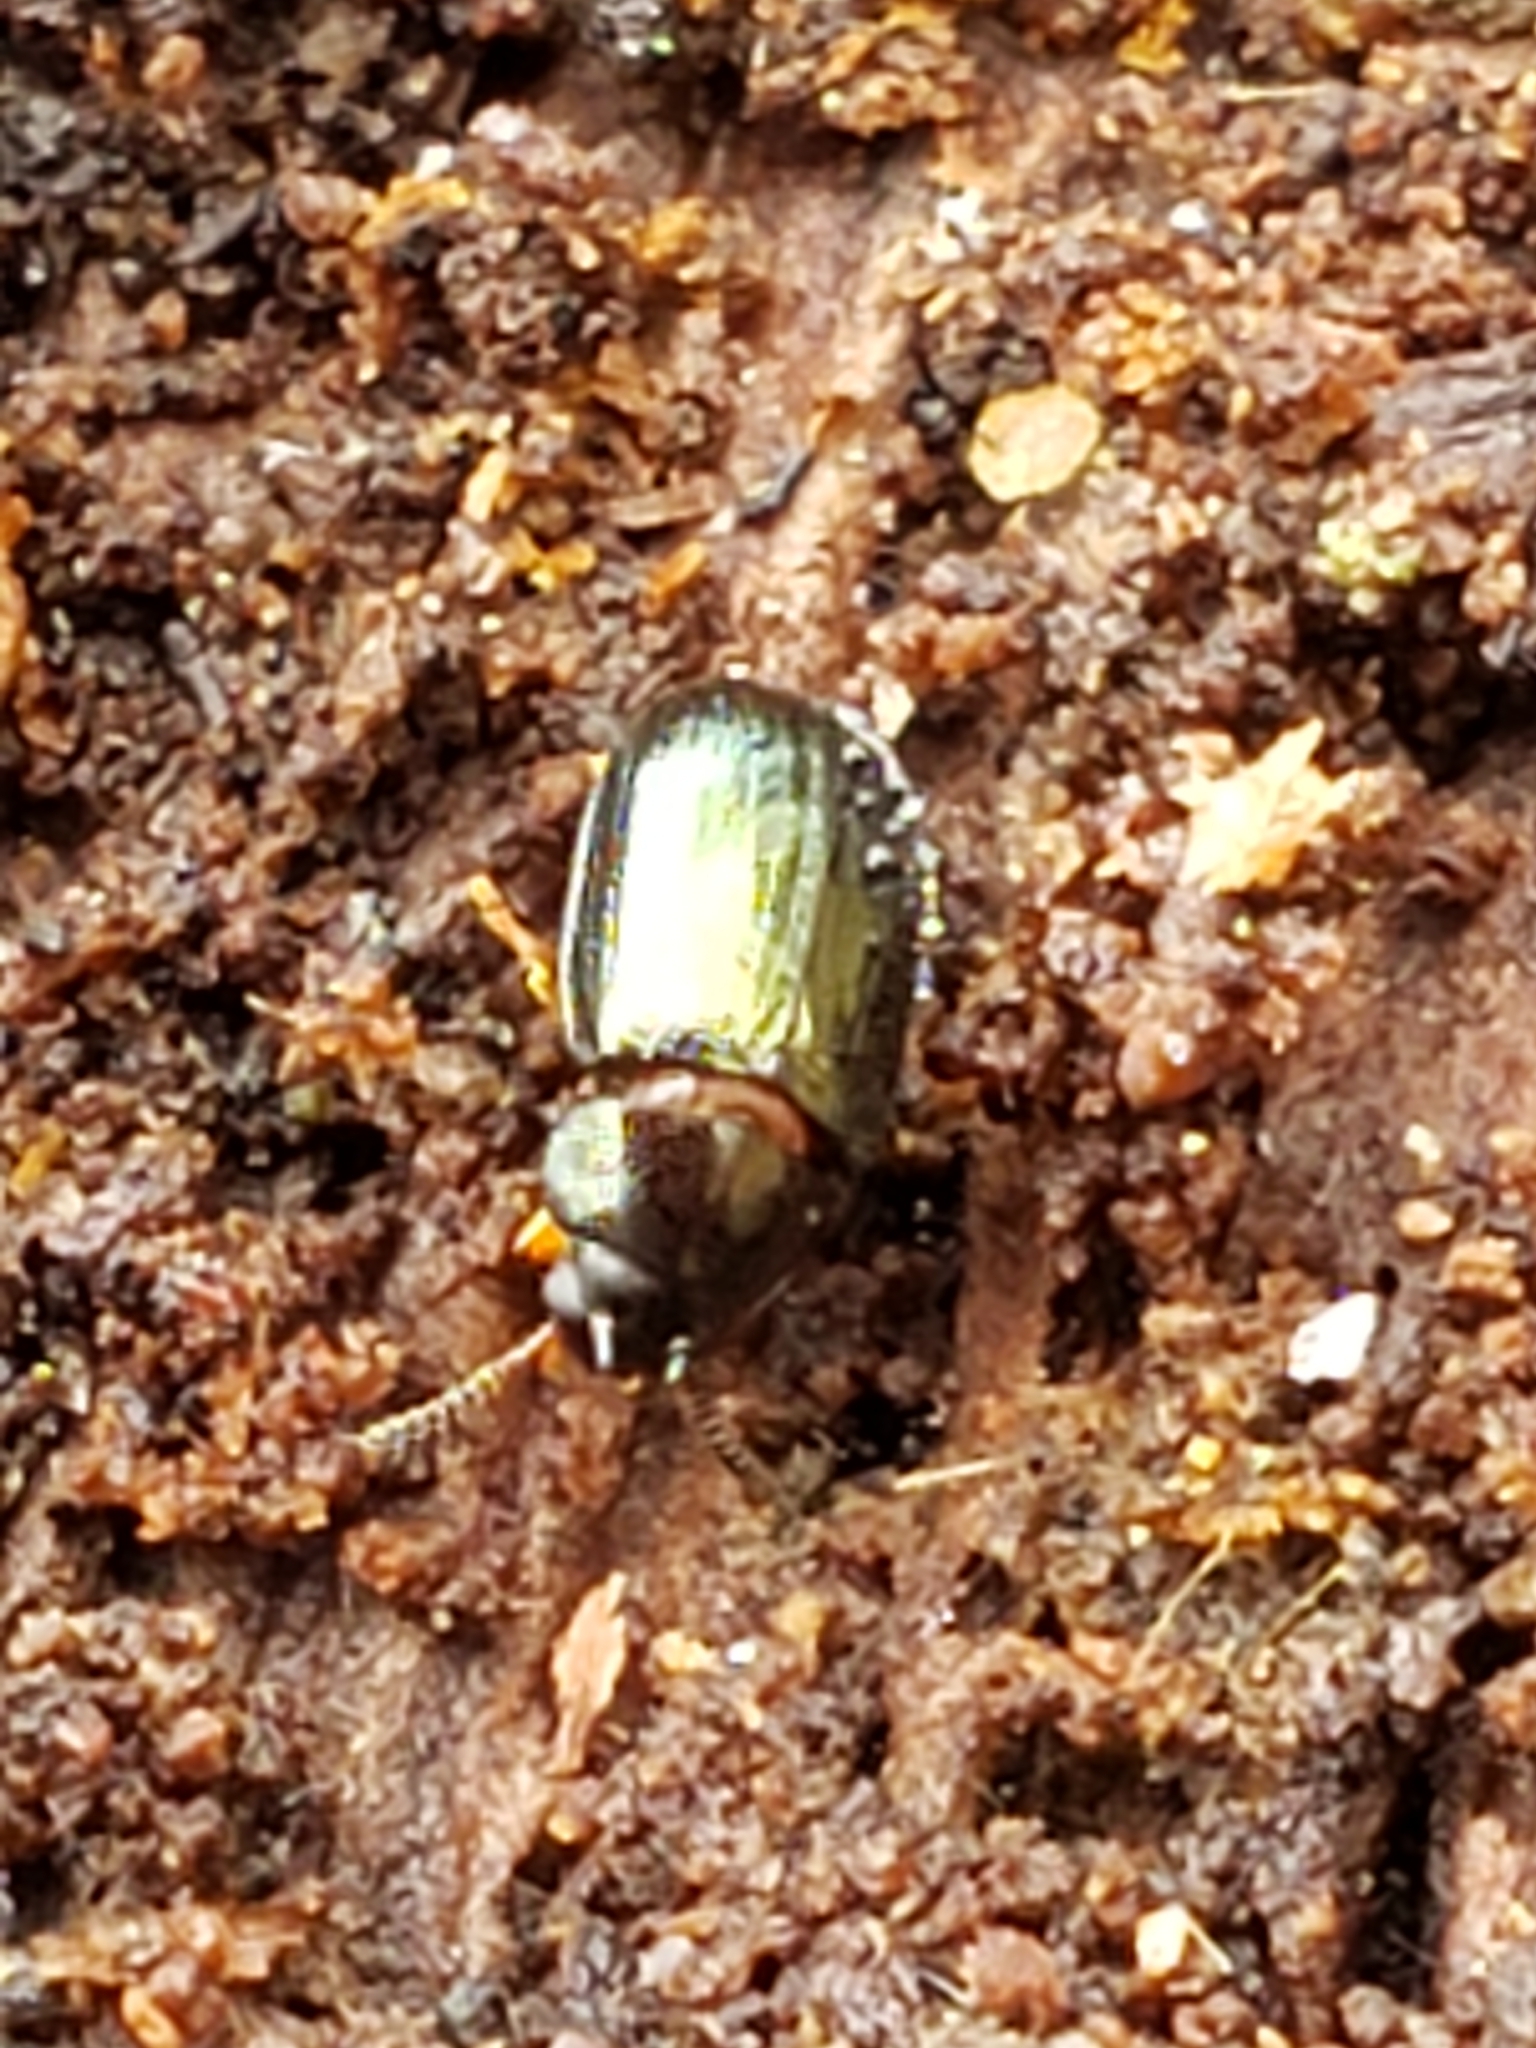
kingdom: Animalia
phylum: Arthropoda
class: Insecta
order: Coleoptera
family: Tenebrionidae
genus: Neomida
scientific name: Neomida bicornis
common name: Two-horned darkling beetle
